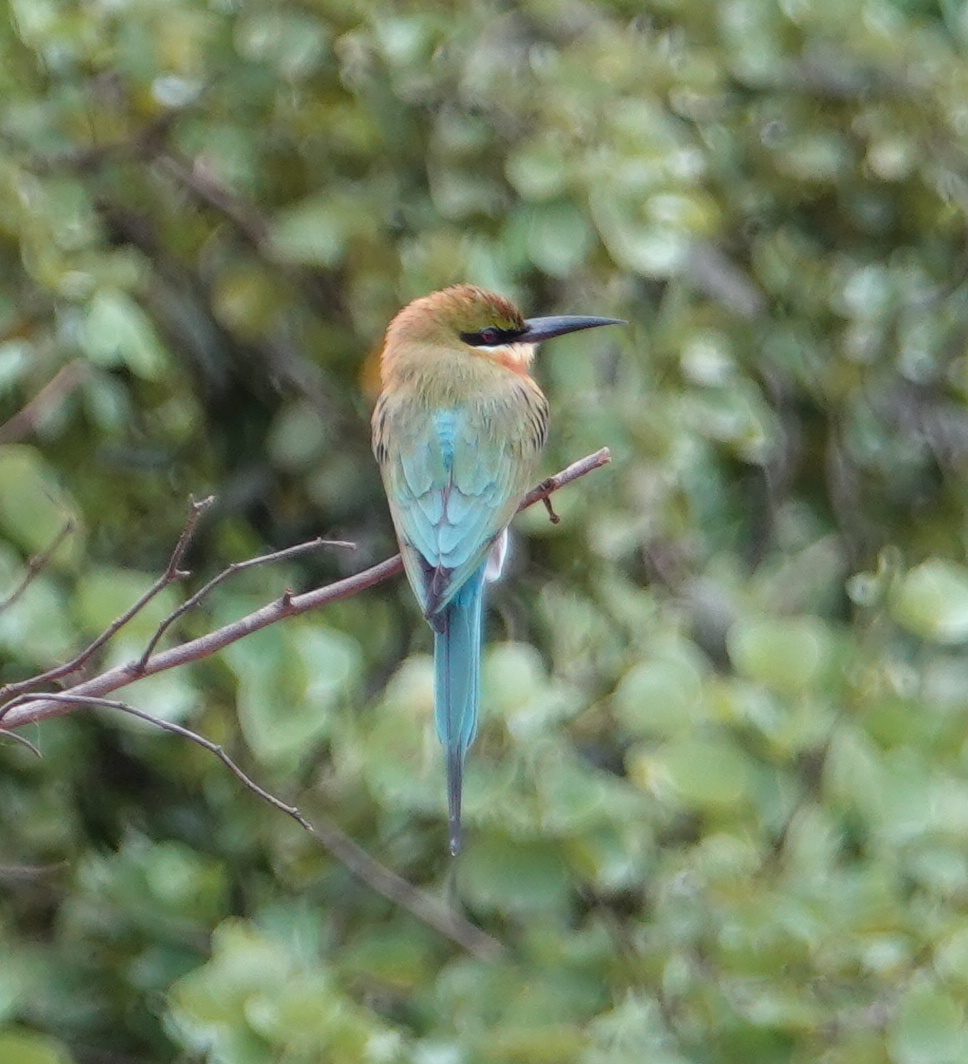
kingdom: Animalia
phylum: Chordata
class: Aves
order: Coraciiformes
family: Meropidae
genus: Merops
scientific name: Merops philippinus
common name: Blue-tailed bee-eater
